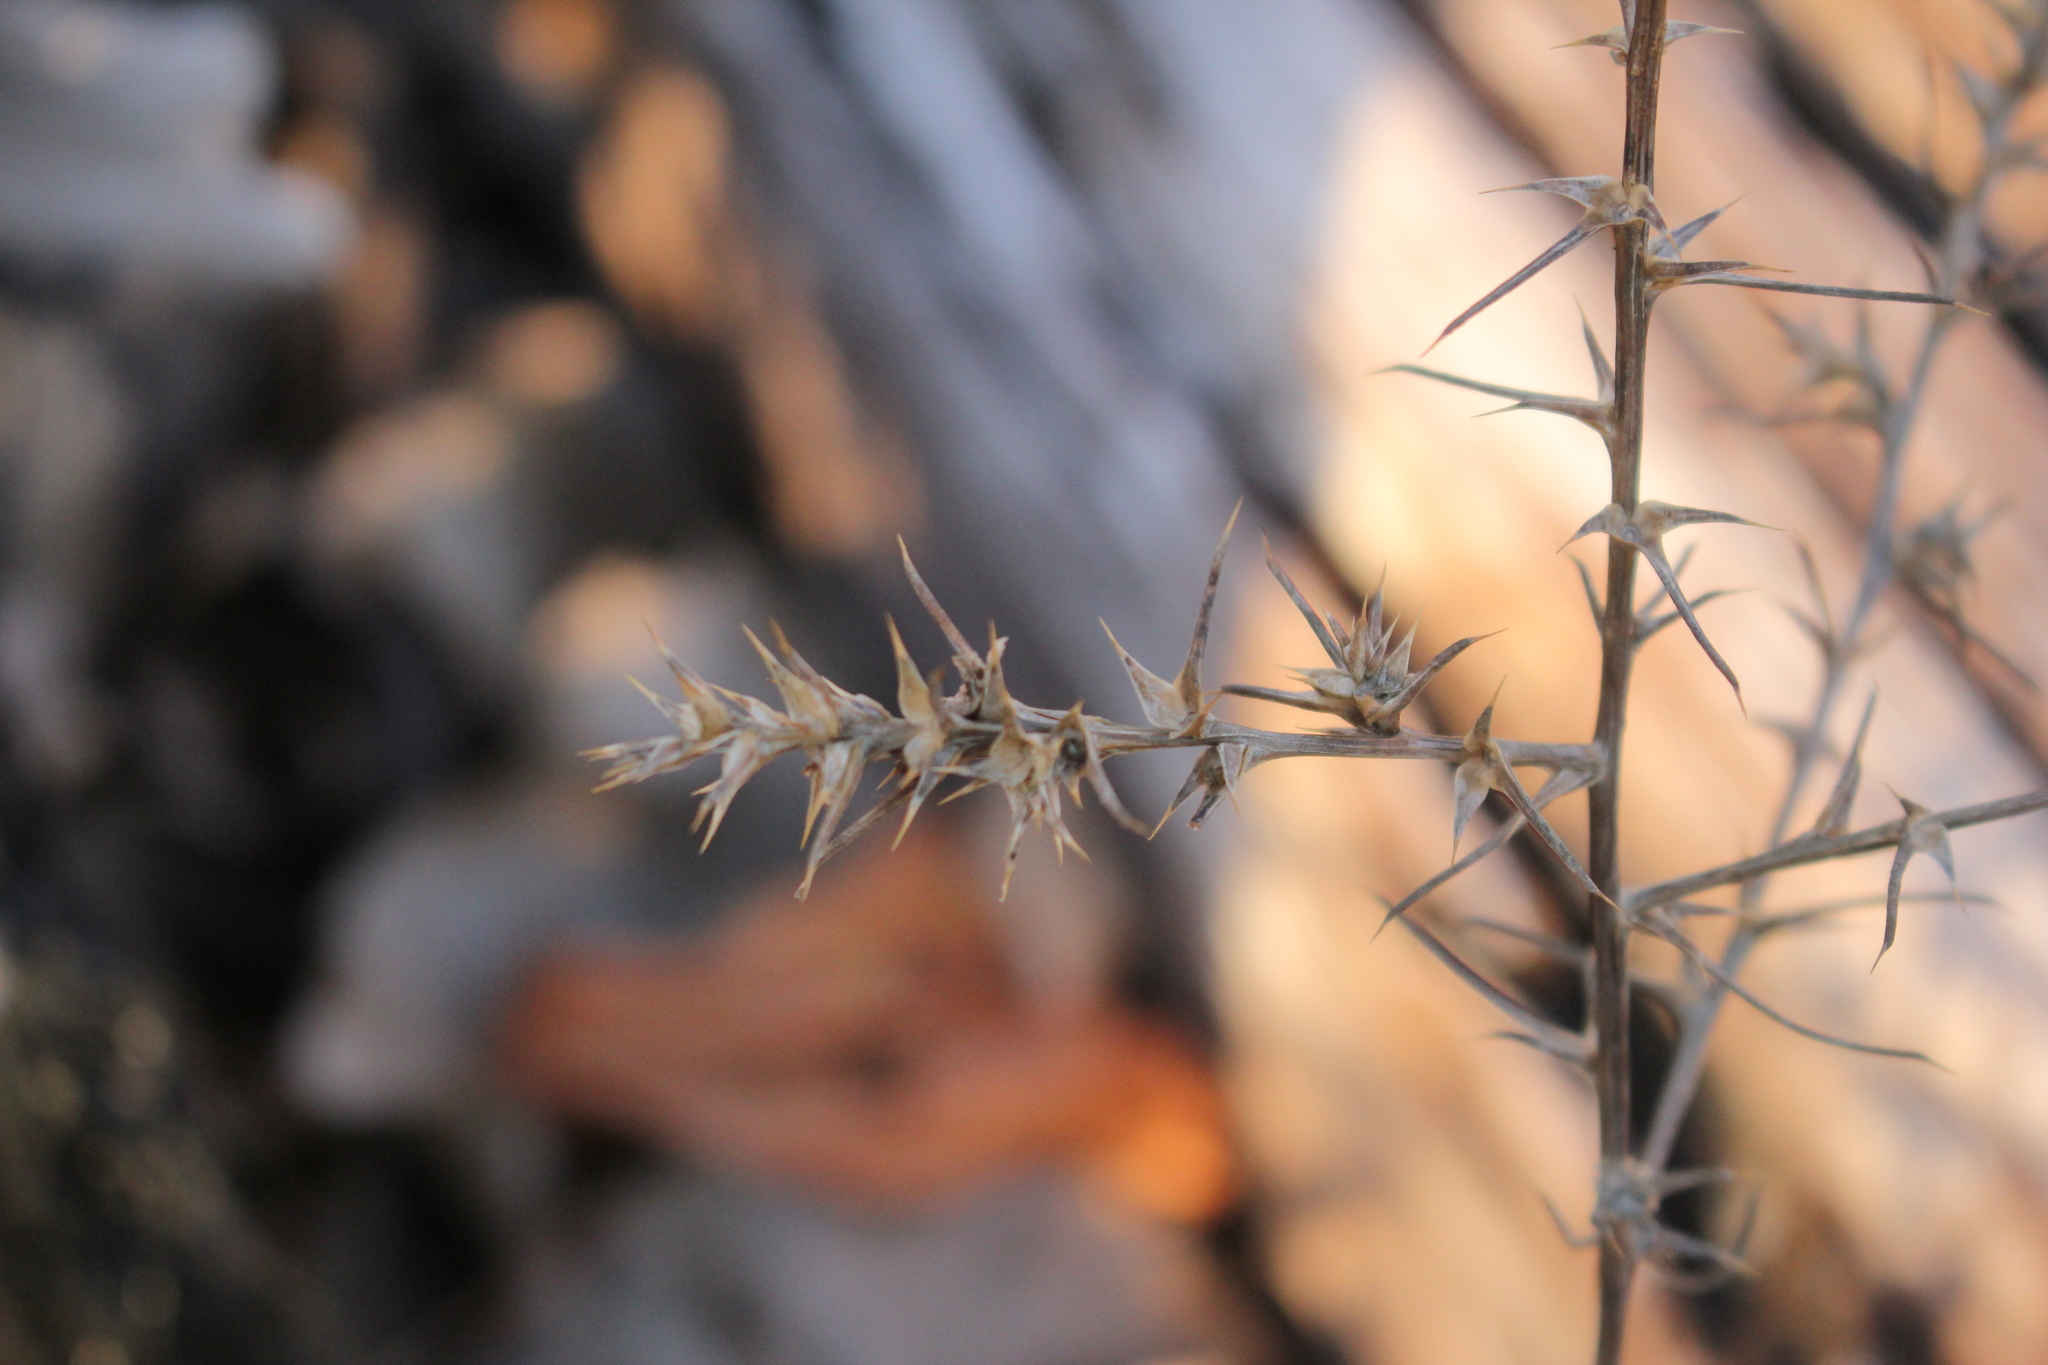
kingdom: Plantae
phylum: Tracheophyta
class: Magnoliopsida
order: Caryophyllales
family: Amaranthaceae
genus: Salsola
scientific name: Salsola tragus
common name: Prickly russian thistle
